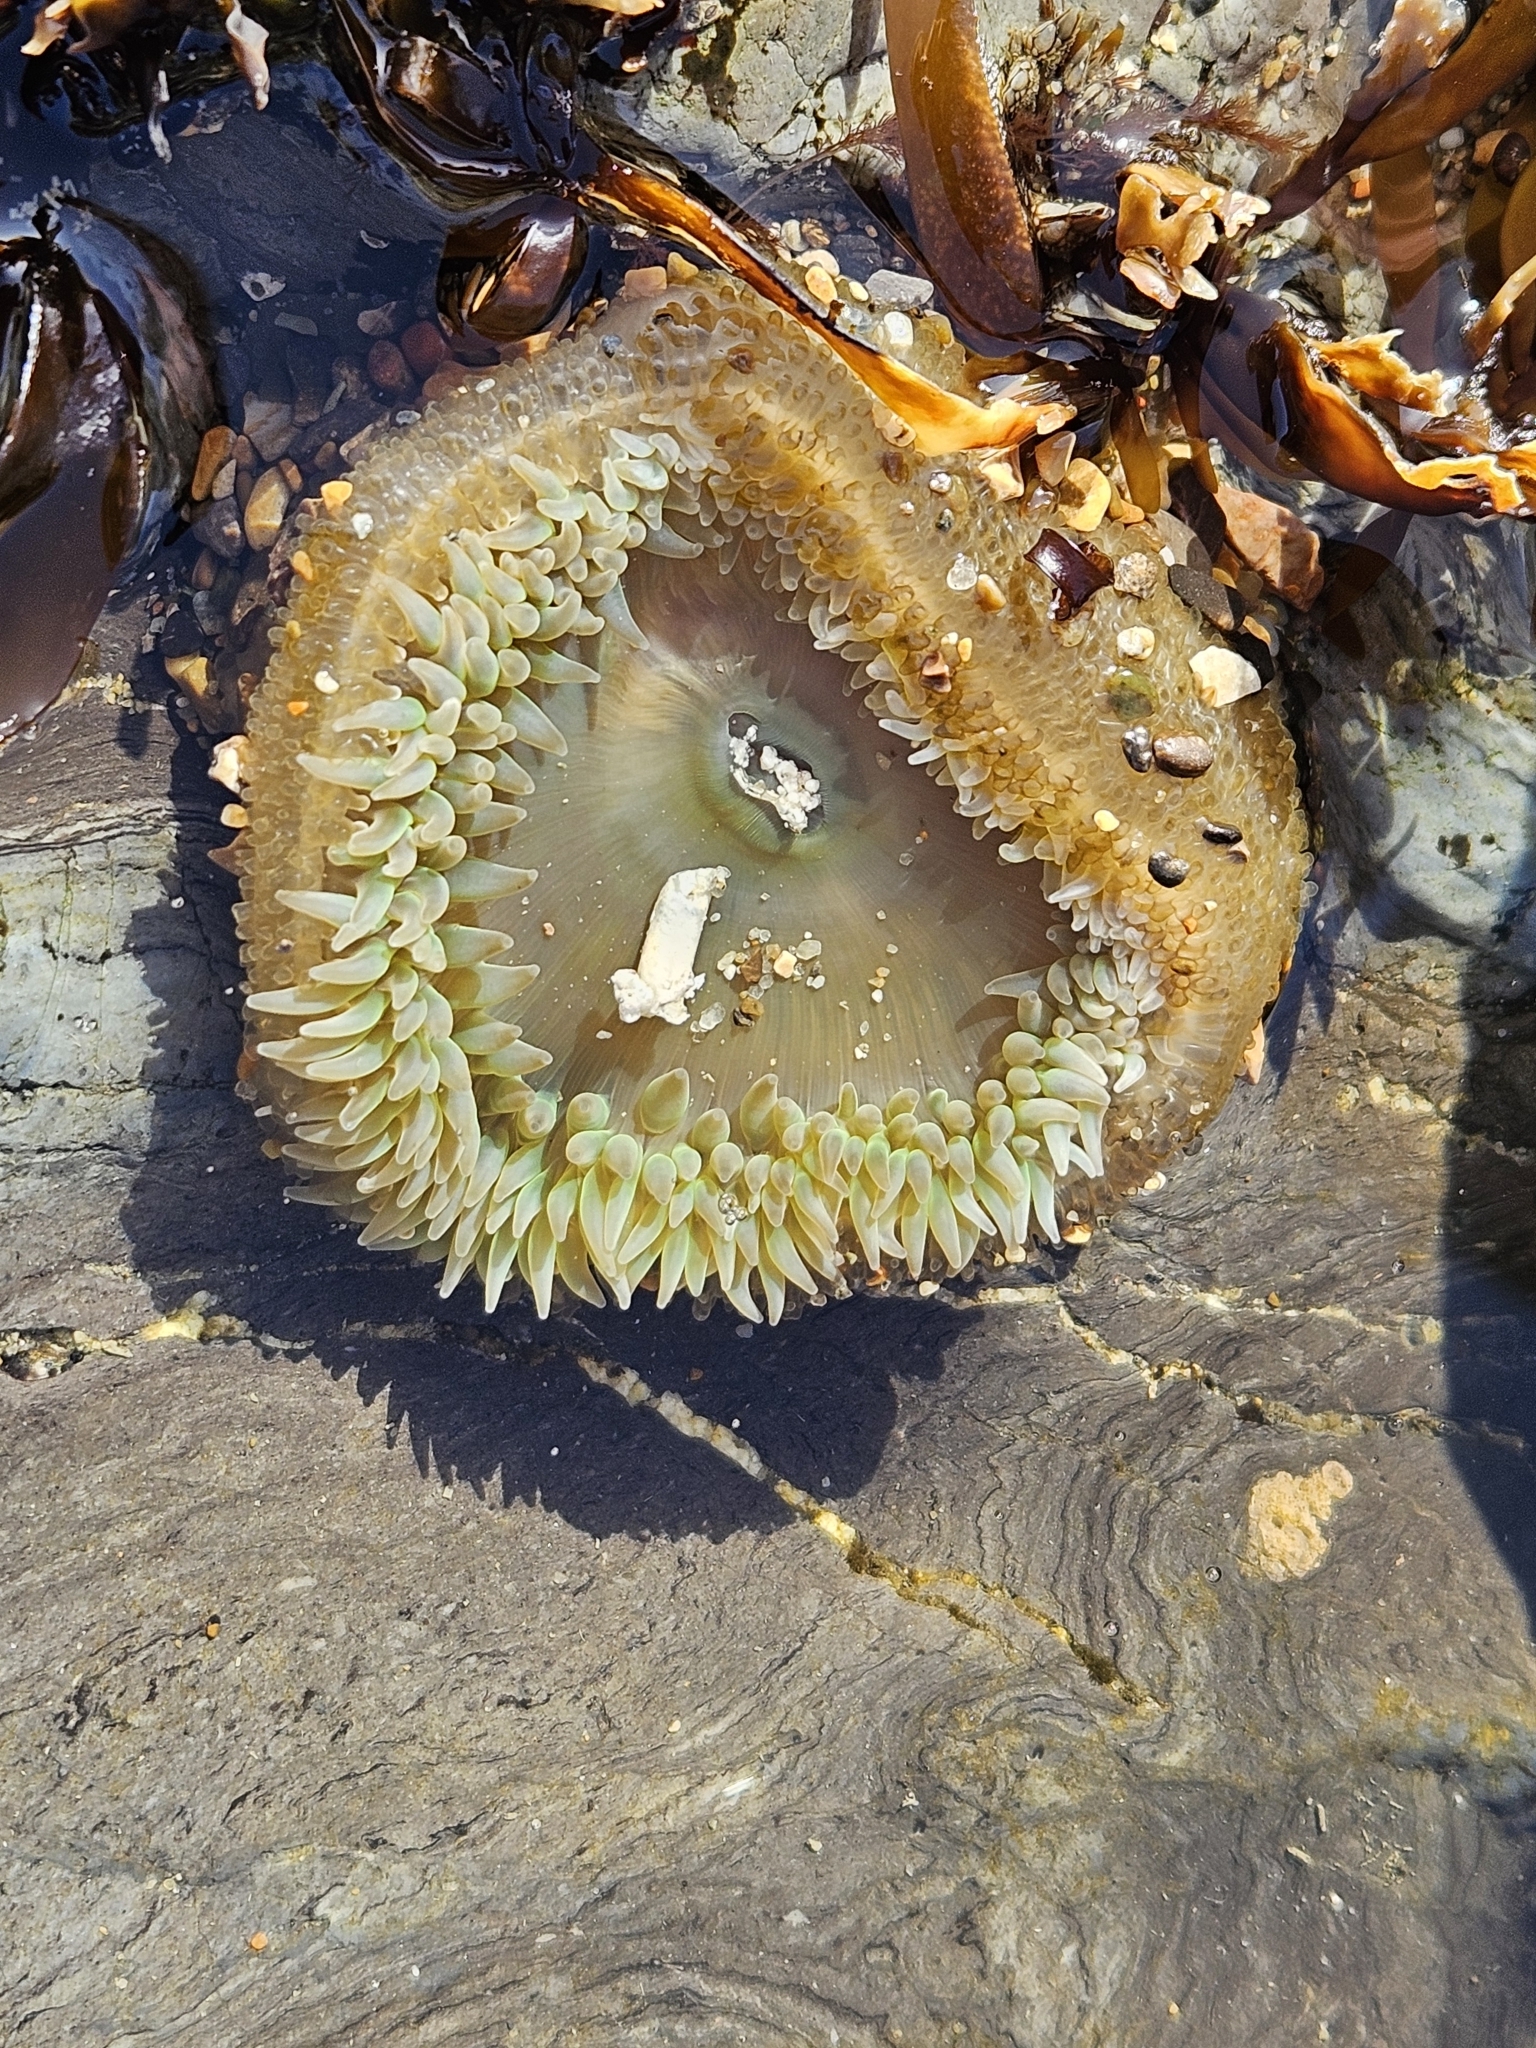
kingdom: Animalia
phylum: Cnidaria
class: Anthozoa
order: Actiniaria
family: Actiniidae
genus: Anthopleura
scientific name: Anthopleura xanthogrammica
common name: Giant green anemone
